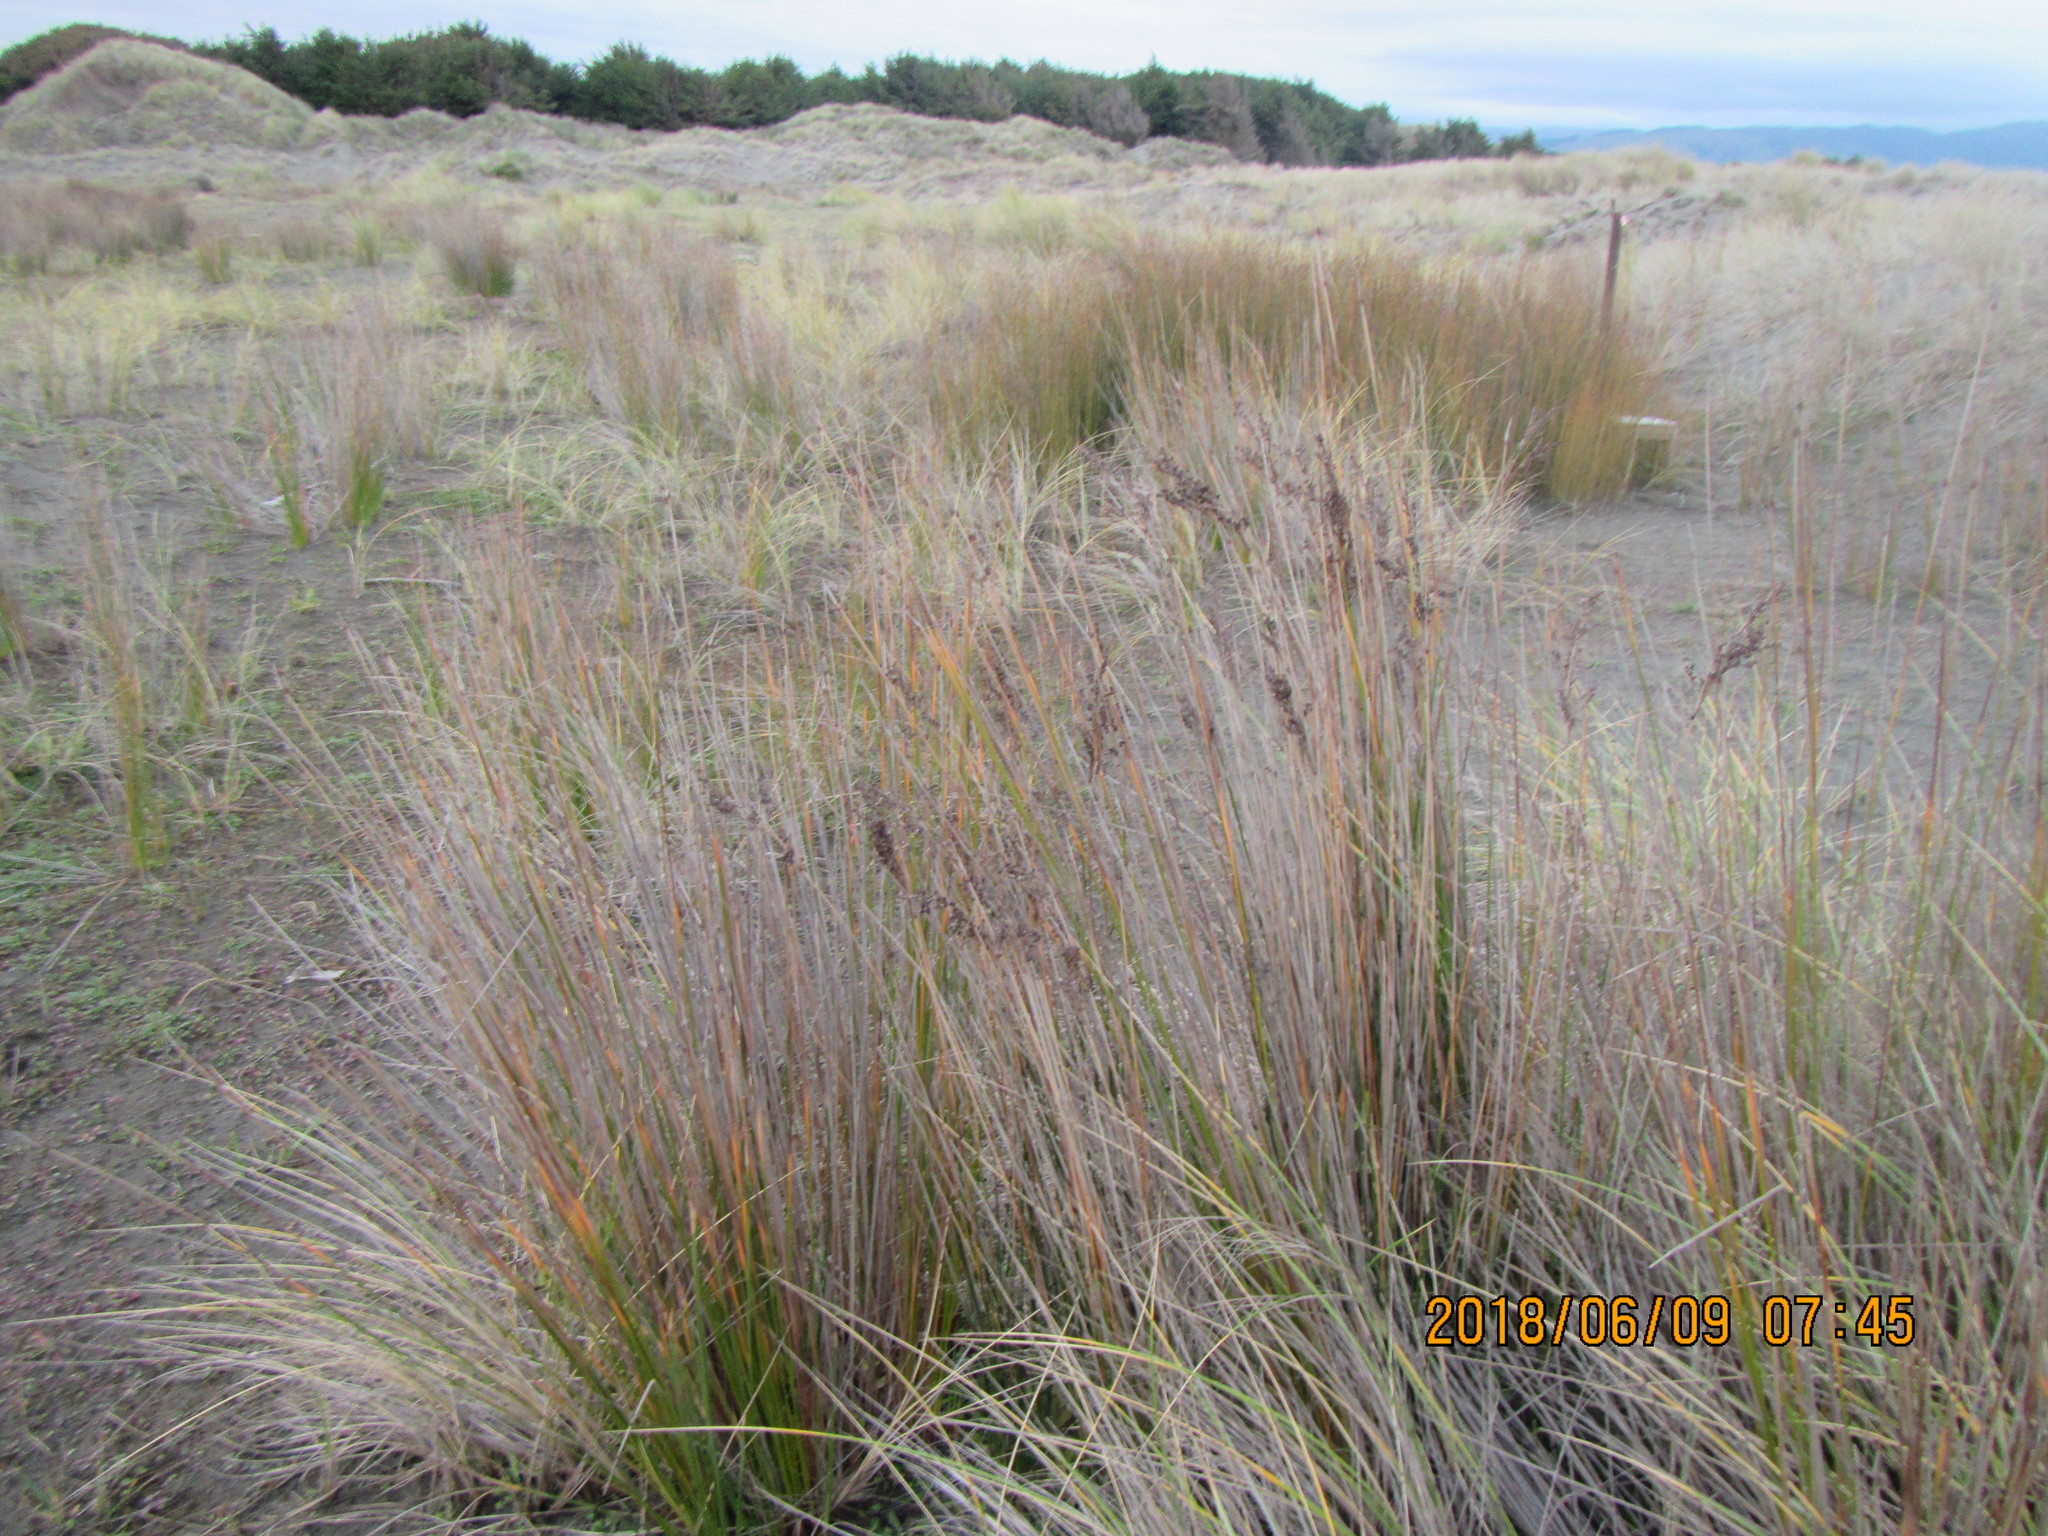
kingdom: Plantae
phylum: Tracheophyta
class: Liliopsida
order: Poales
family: Juncaceae
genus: Juncus
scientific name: Juncus kraussii
